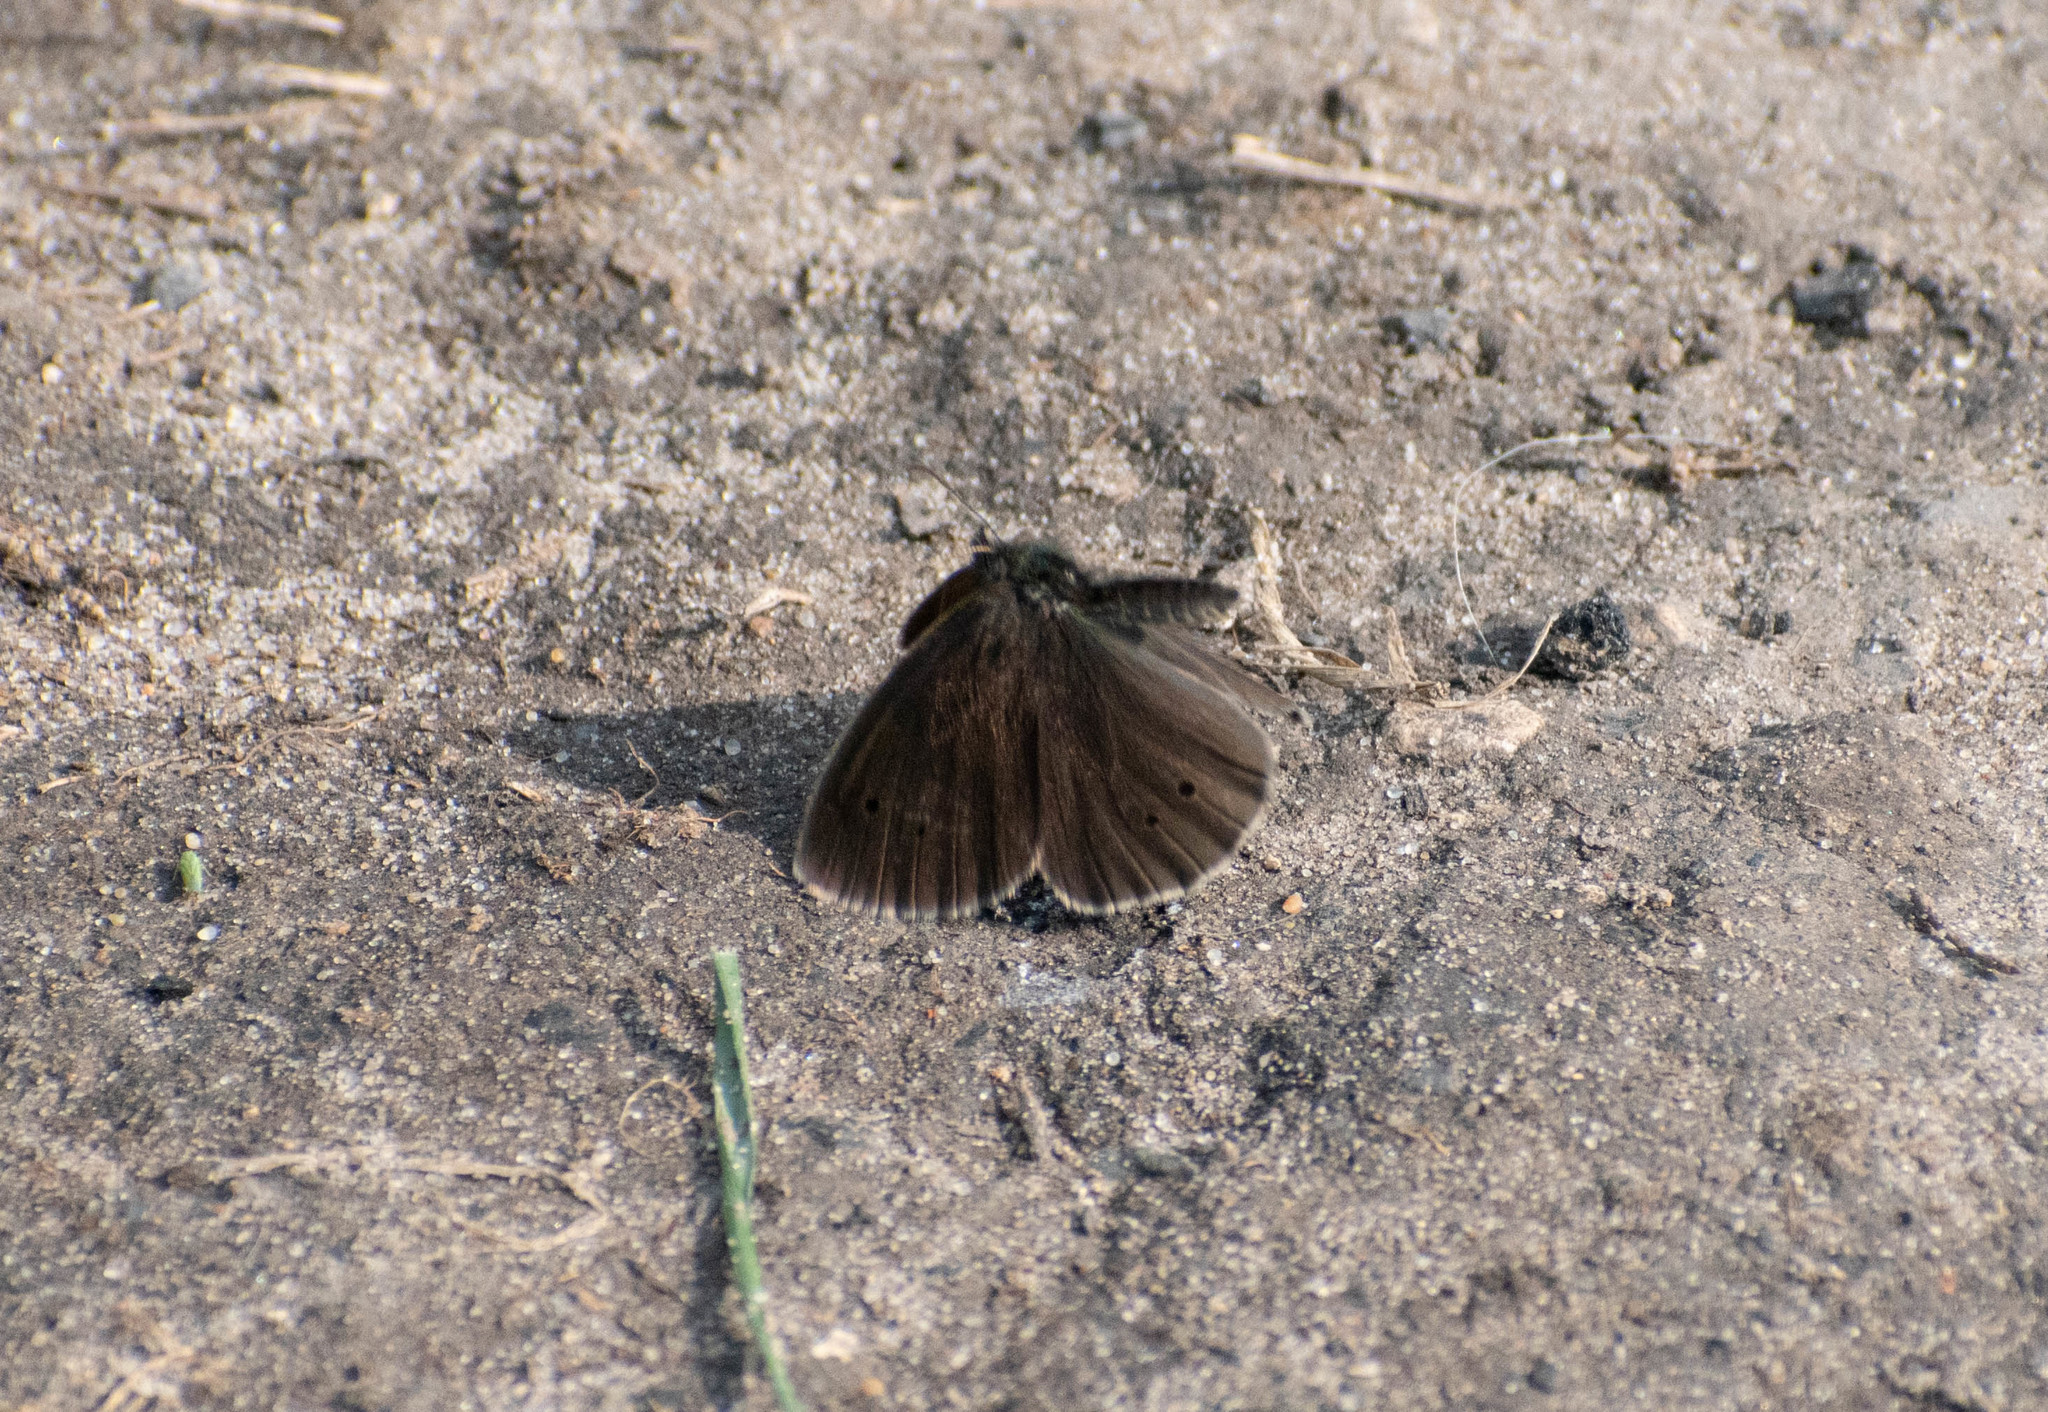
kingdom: Animalia
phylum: Arthropoda
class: Insecta
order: Lepidoptera
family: Nymphalidae
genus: Aphantopus
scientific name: Aphantopus hyperantus
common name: Ringlet
